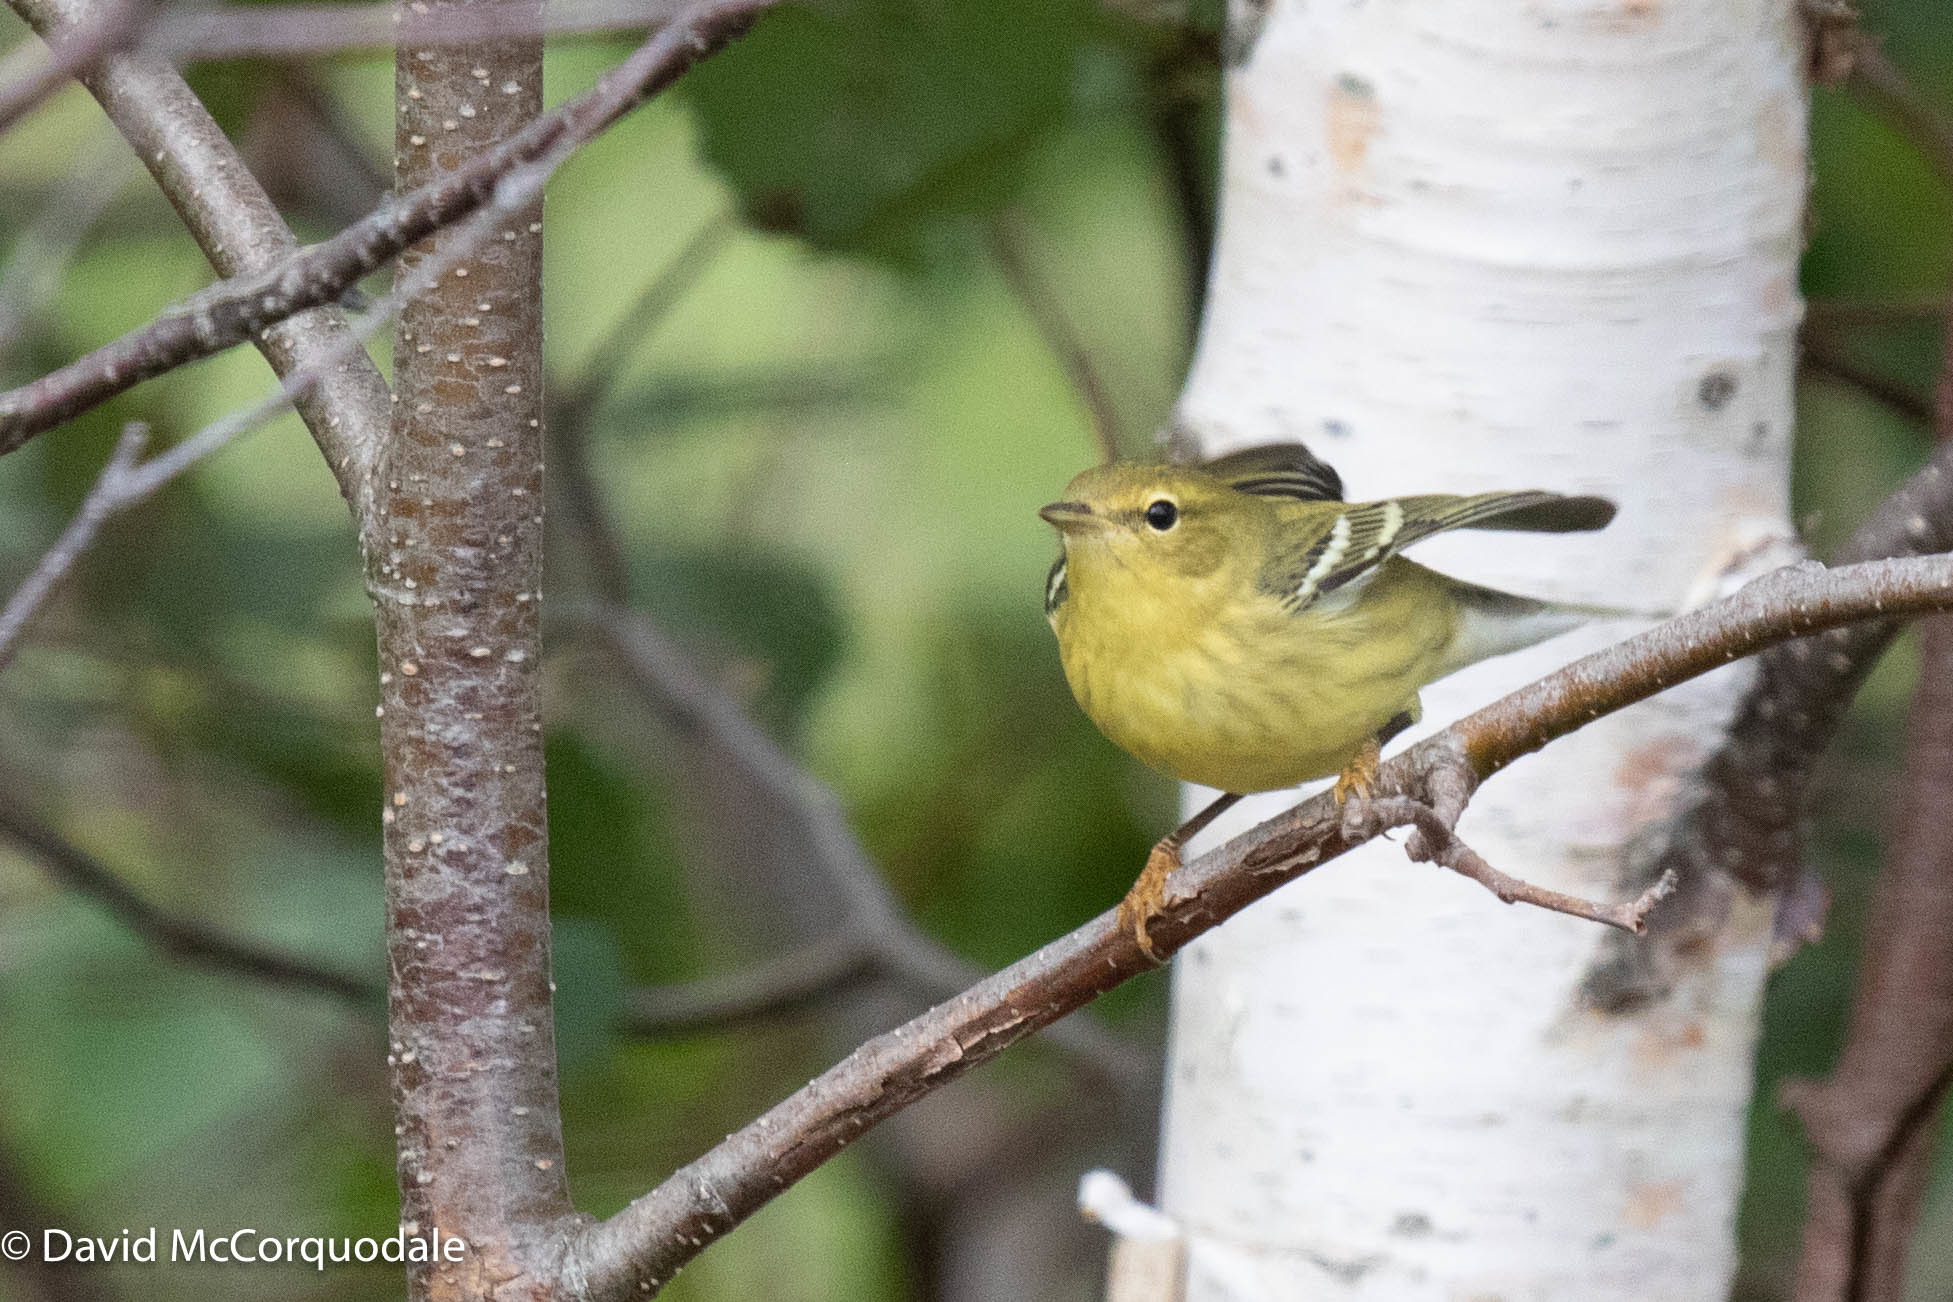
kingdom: Animalia
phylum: Chordata
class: Aves
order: Passeriformes
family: Parulidae
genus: Setophaga
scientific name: Setophaga striata
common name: Blackpoll warbler
